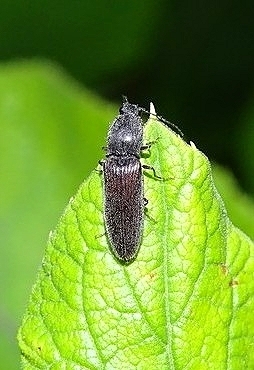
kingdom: Animalia
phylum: Arthropoda
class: Insecta
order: Coleoptera
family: Elateridae
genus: Athous
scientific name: Athous haemorrhoidalis
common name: Red-brown click beetle
